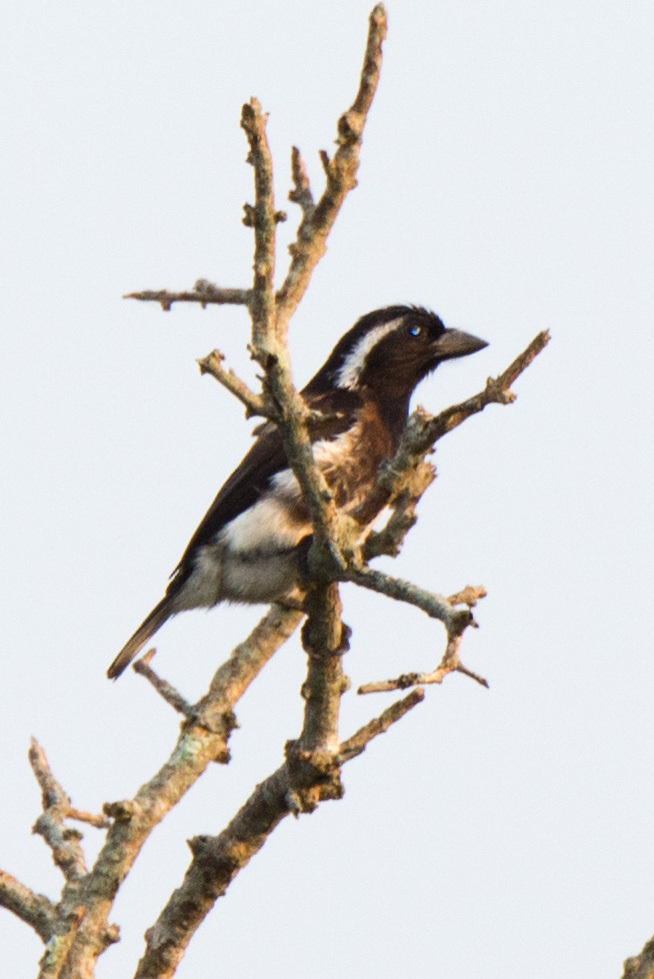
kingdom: Animalia
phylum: Chordata
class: Aves
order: Piciformes
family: Lybiidae
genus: Stactolaema
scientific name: Stactolaema leucotis
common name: White-eared barbet
